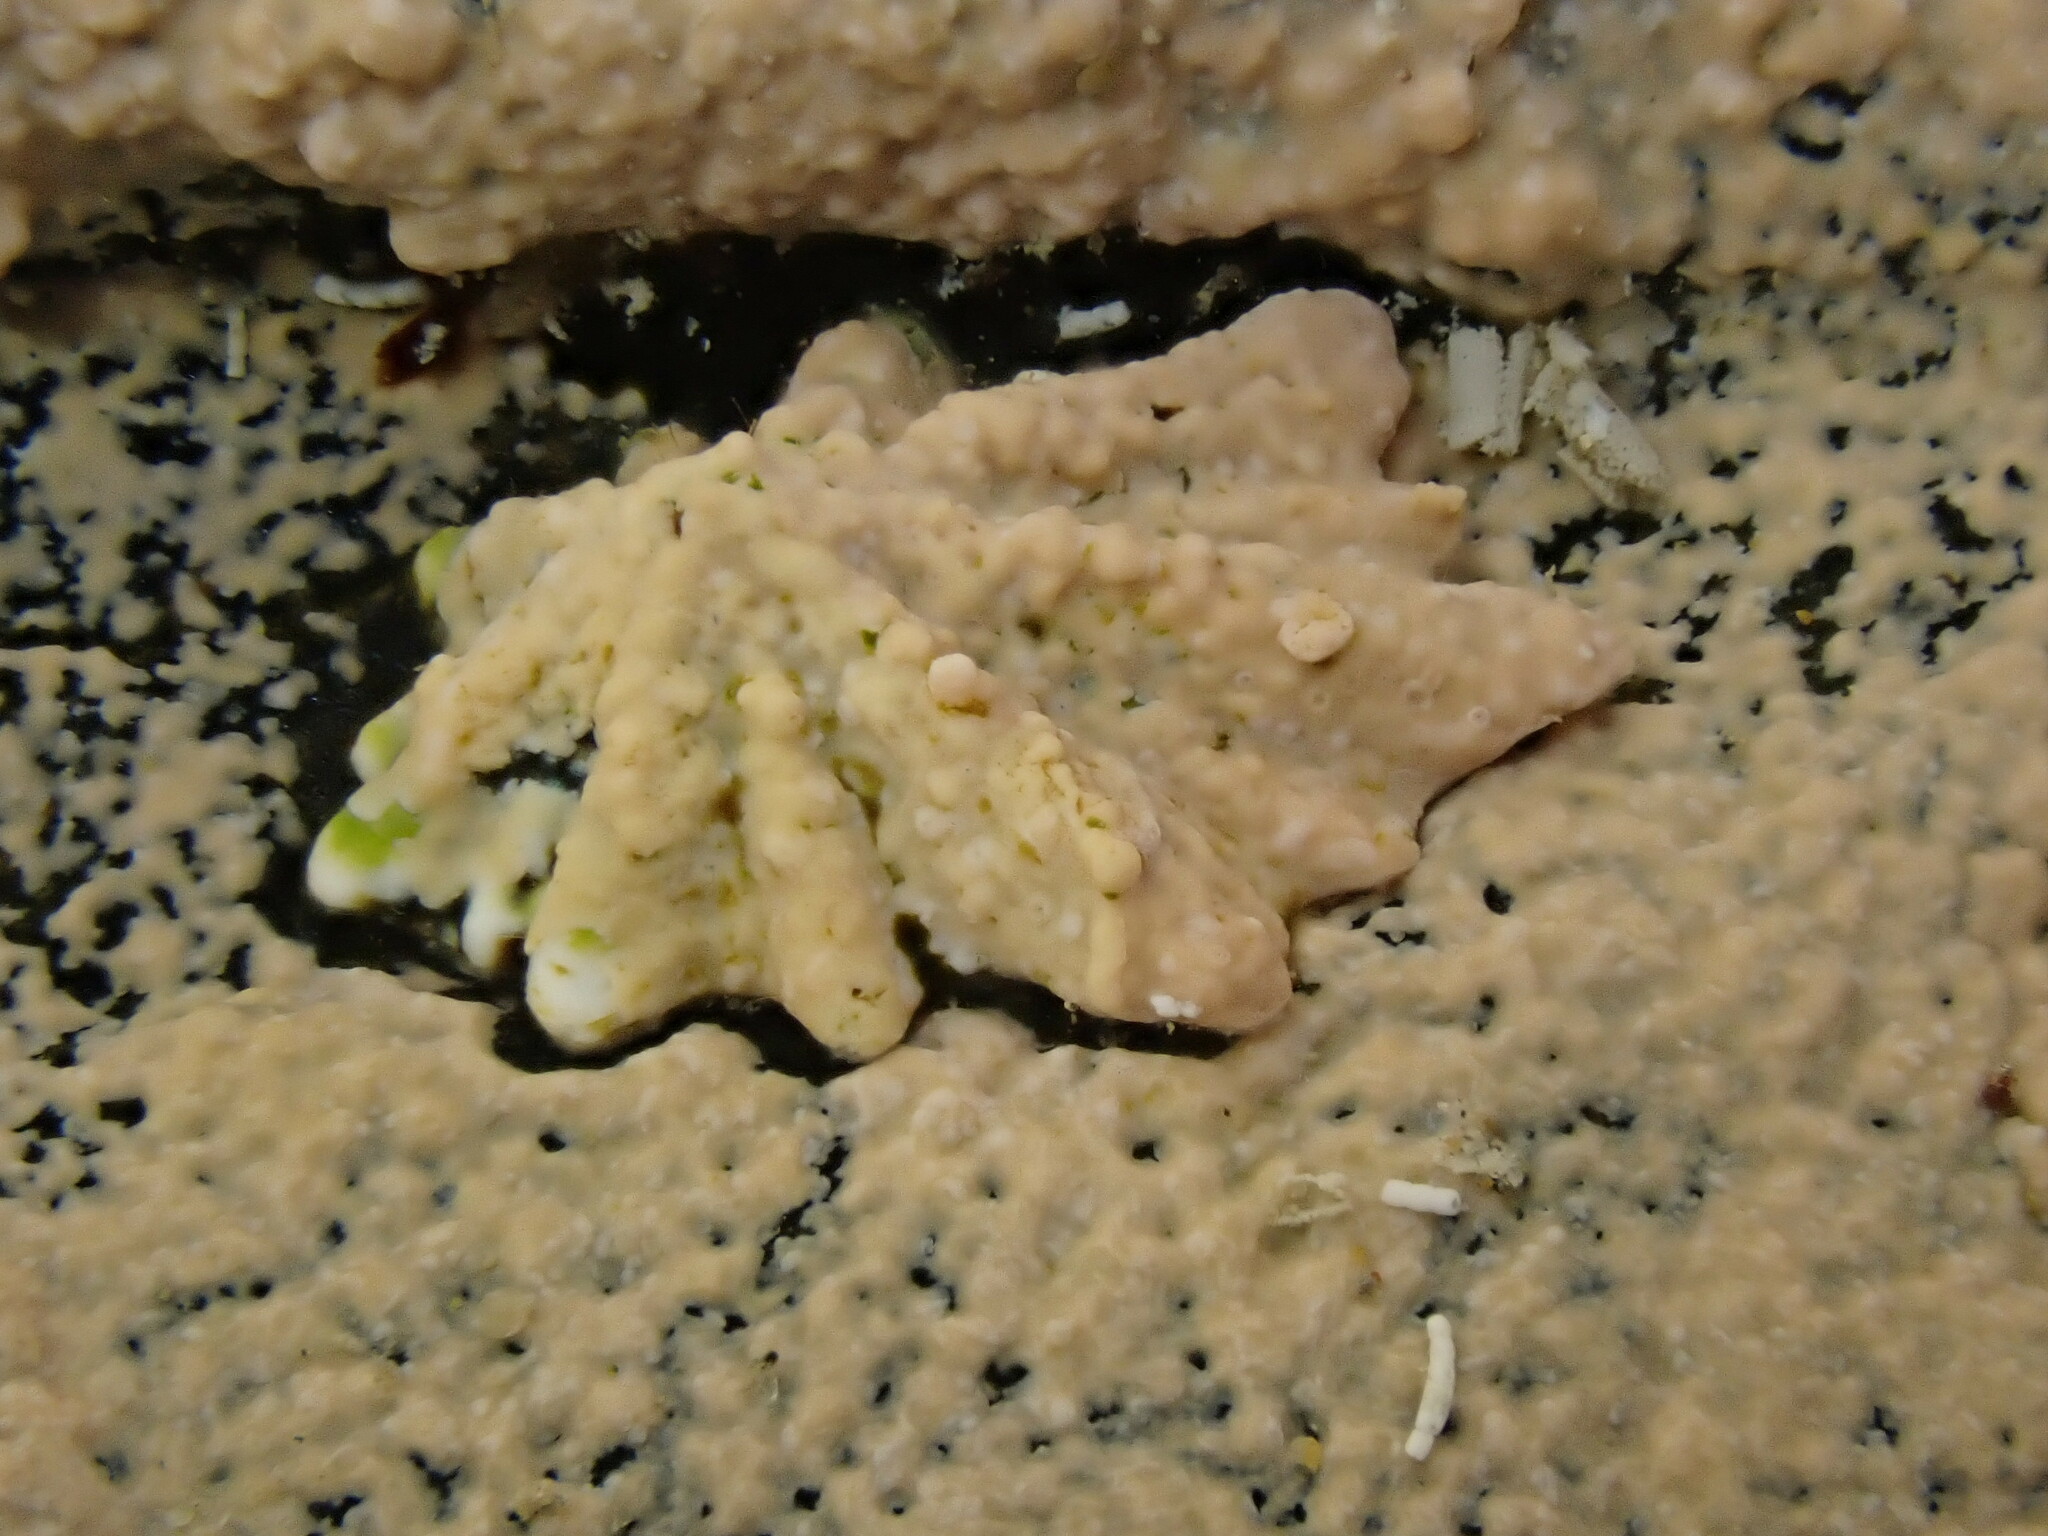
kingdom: Animalia
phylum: Mollusca
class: Gastropoda
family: Lottiidae
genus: Patelloida
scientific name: Patelloida corticata
